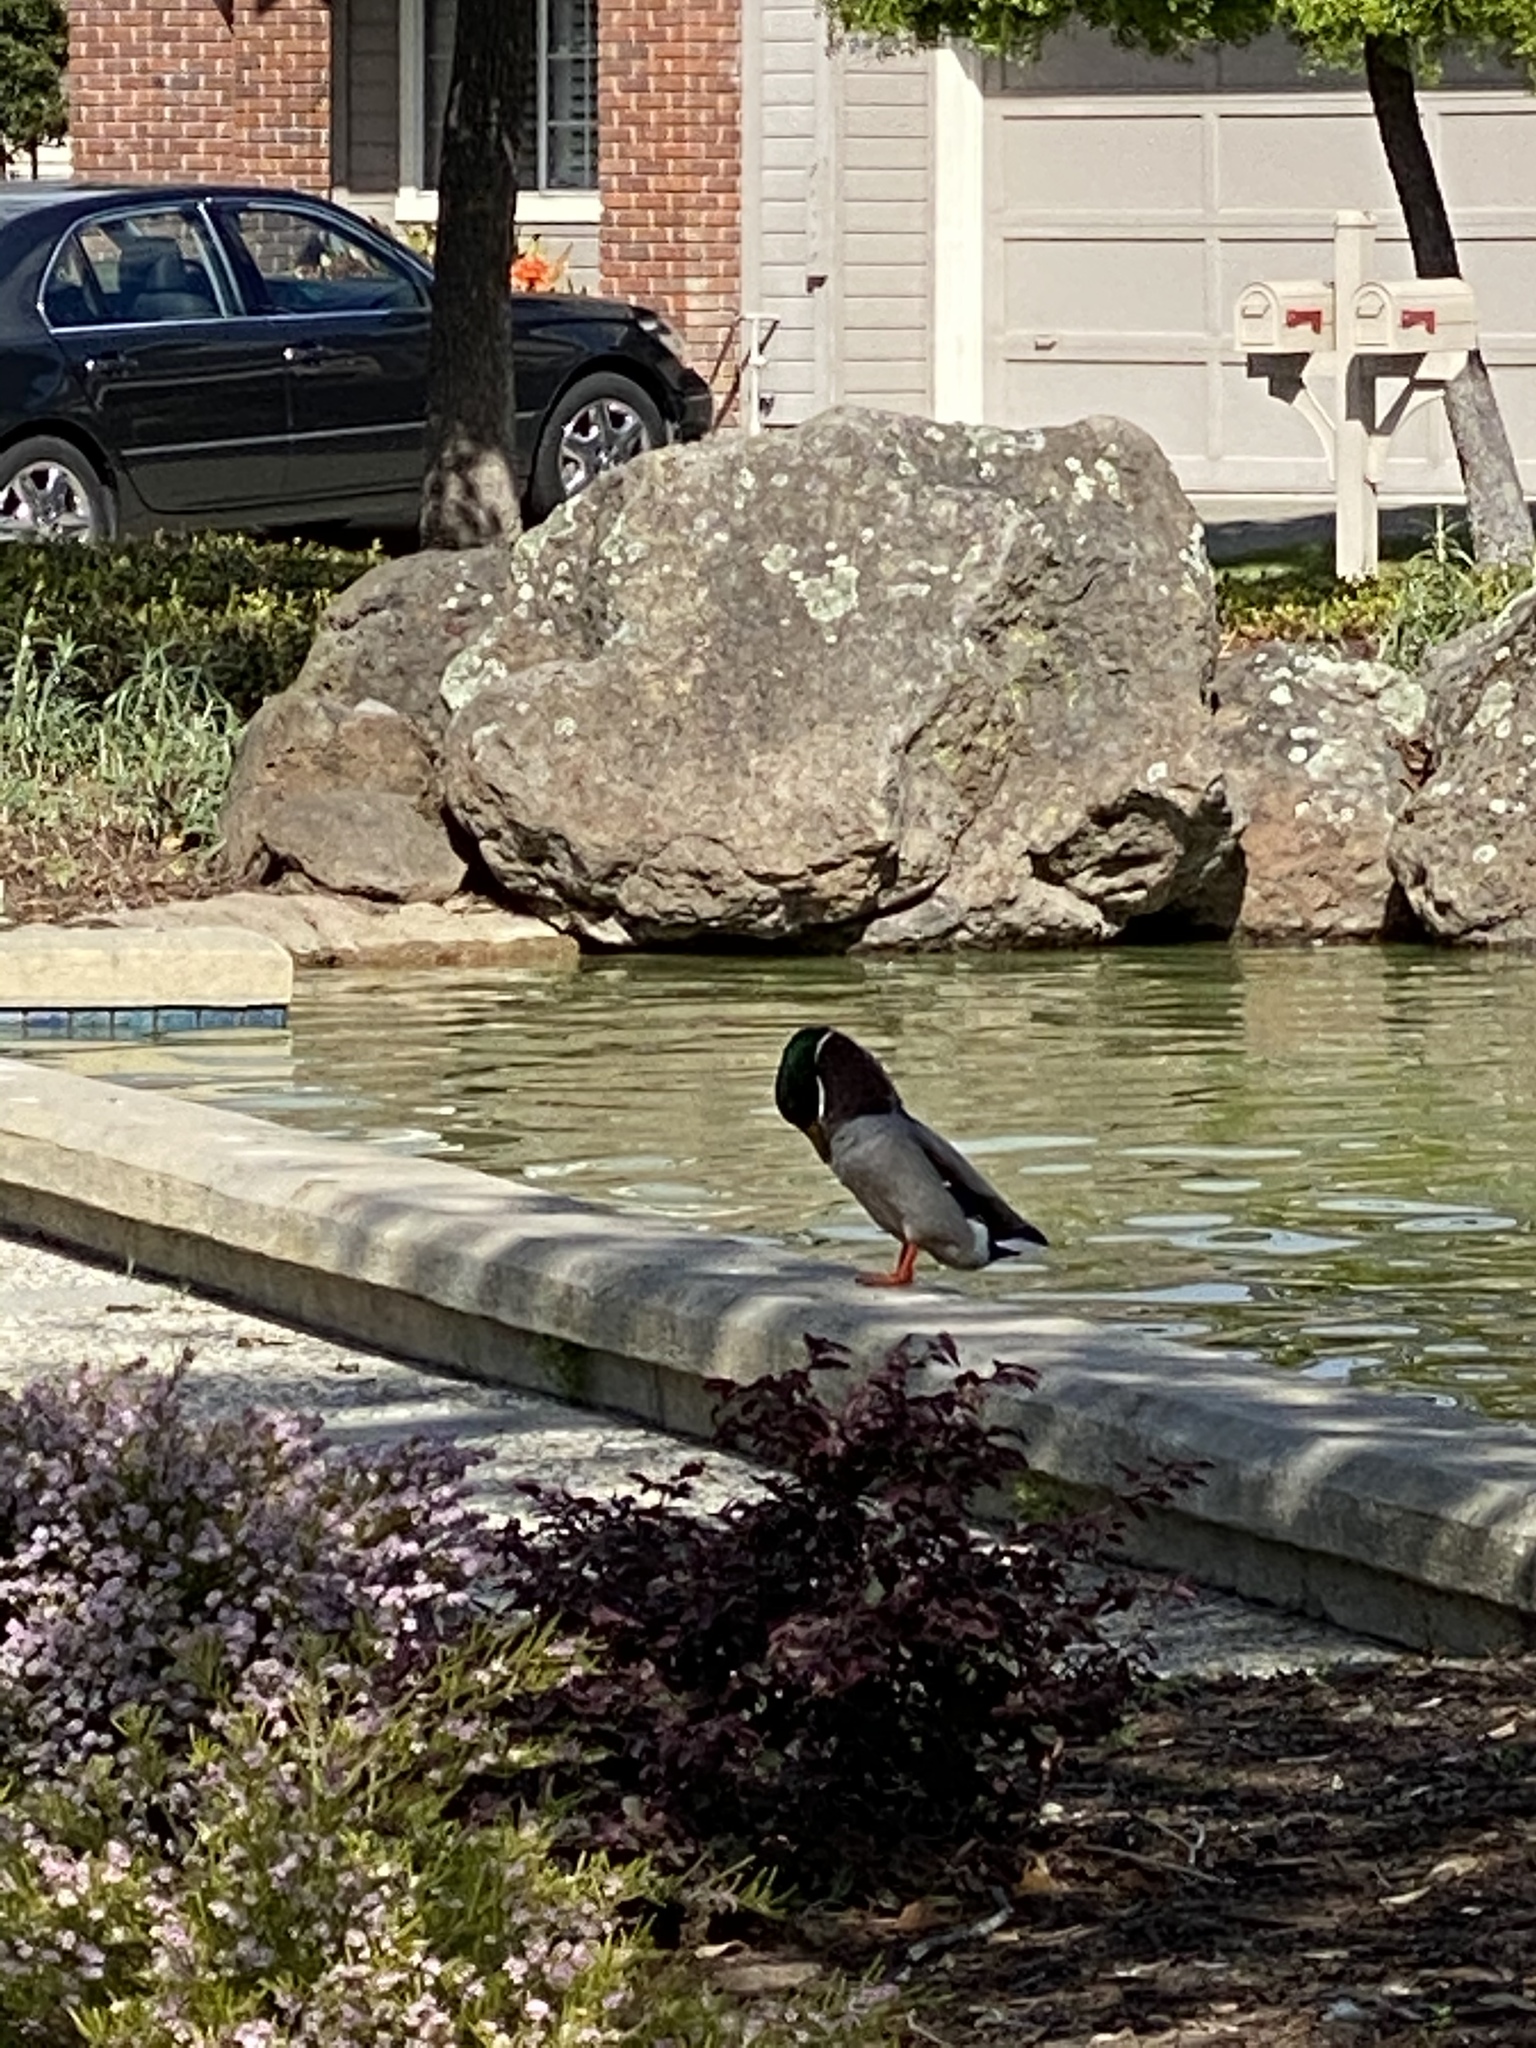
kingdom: Animalia
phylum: Chordata
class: Aves
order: Anseriformes
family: Anatidae
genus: Anas
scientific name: Anas platyrhynchos
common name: Mallard
